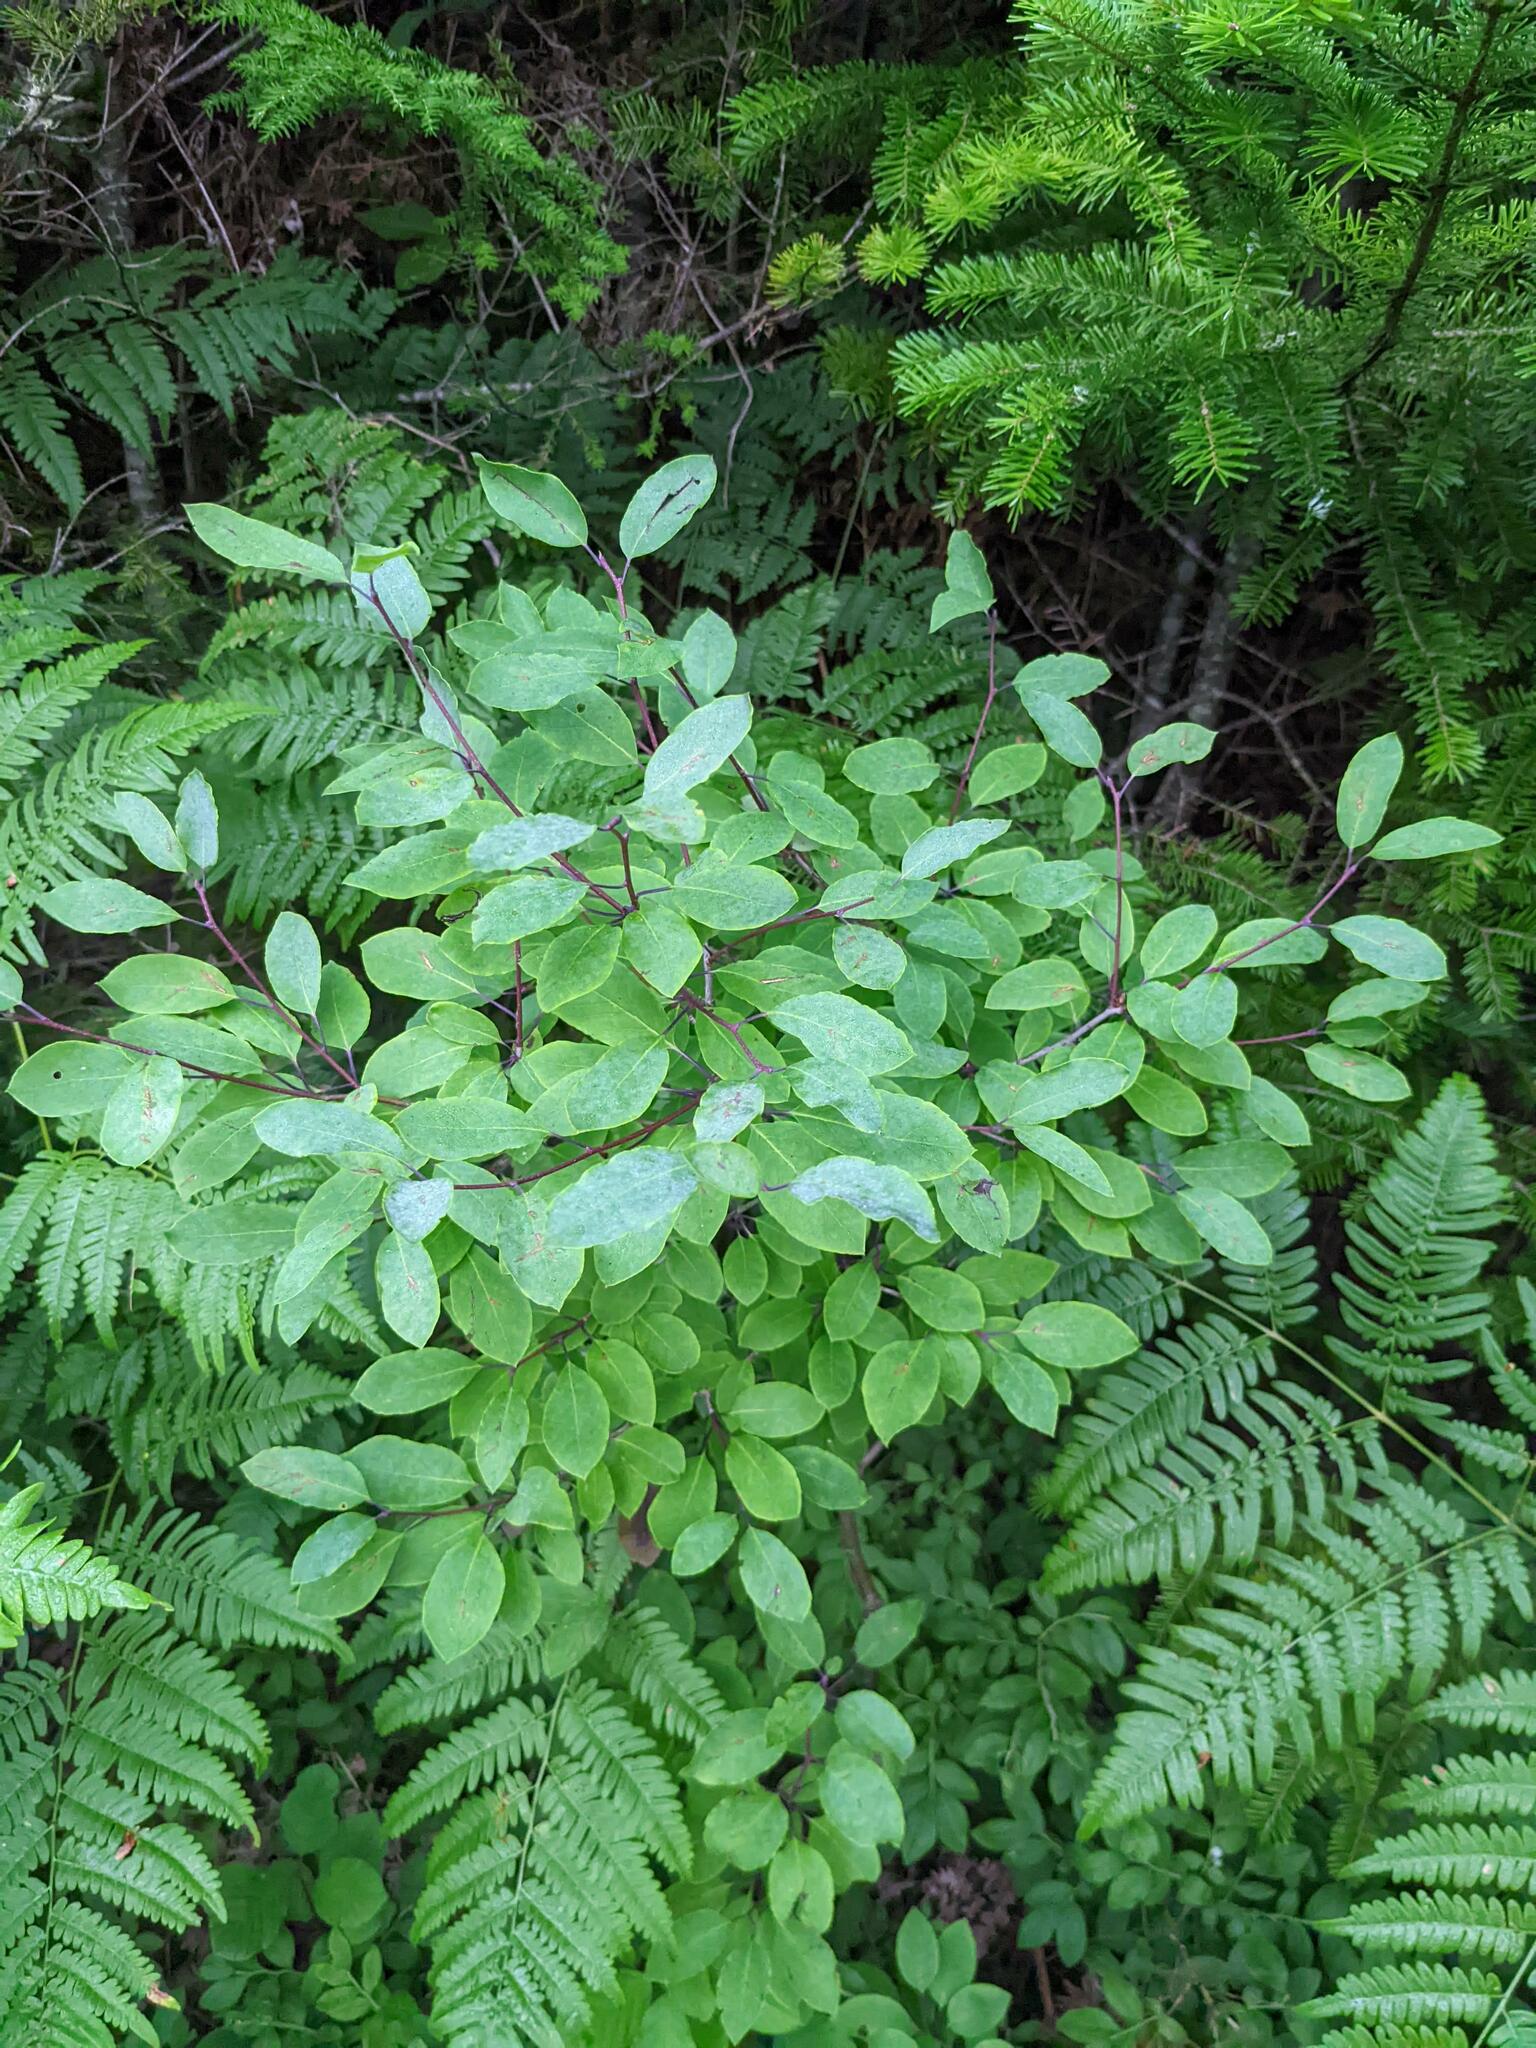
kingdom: Plantae
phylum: Tracheophyta
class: Magnoliopsida
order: Aquifoliales
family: Aquifoliaceae
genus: Ilex
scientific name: Ilex mucronata
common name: Catberry
